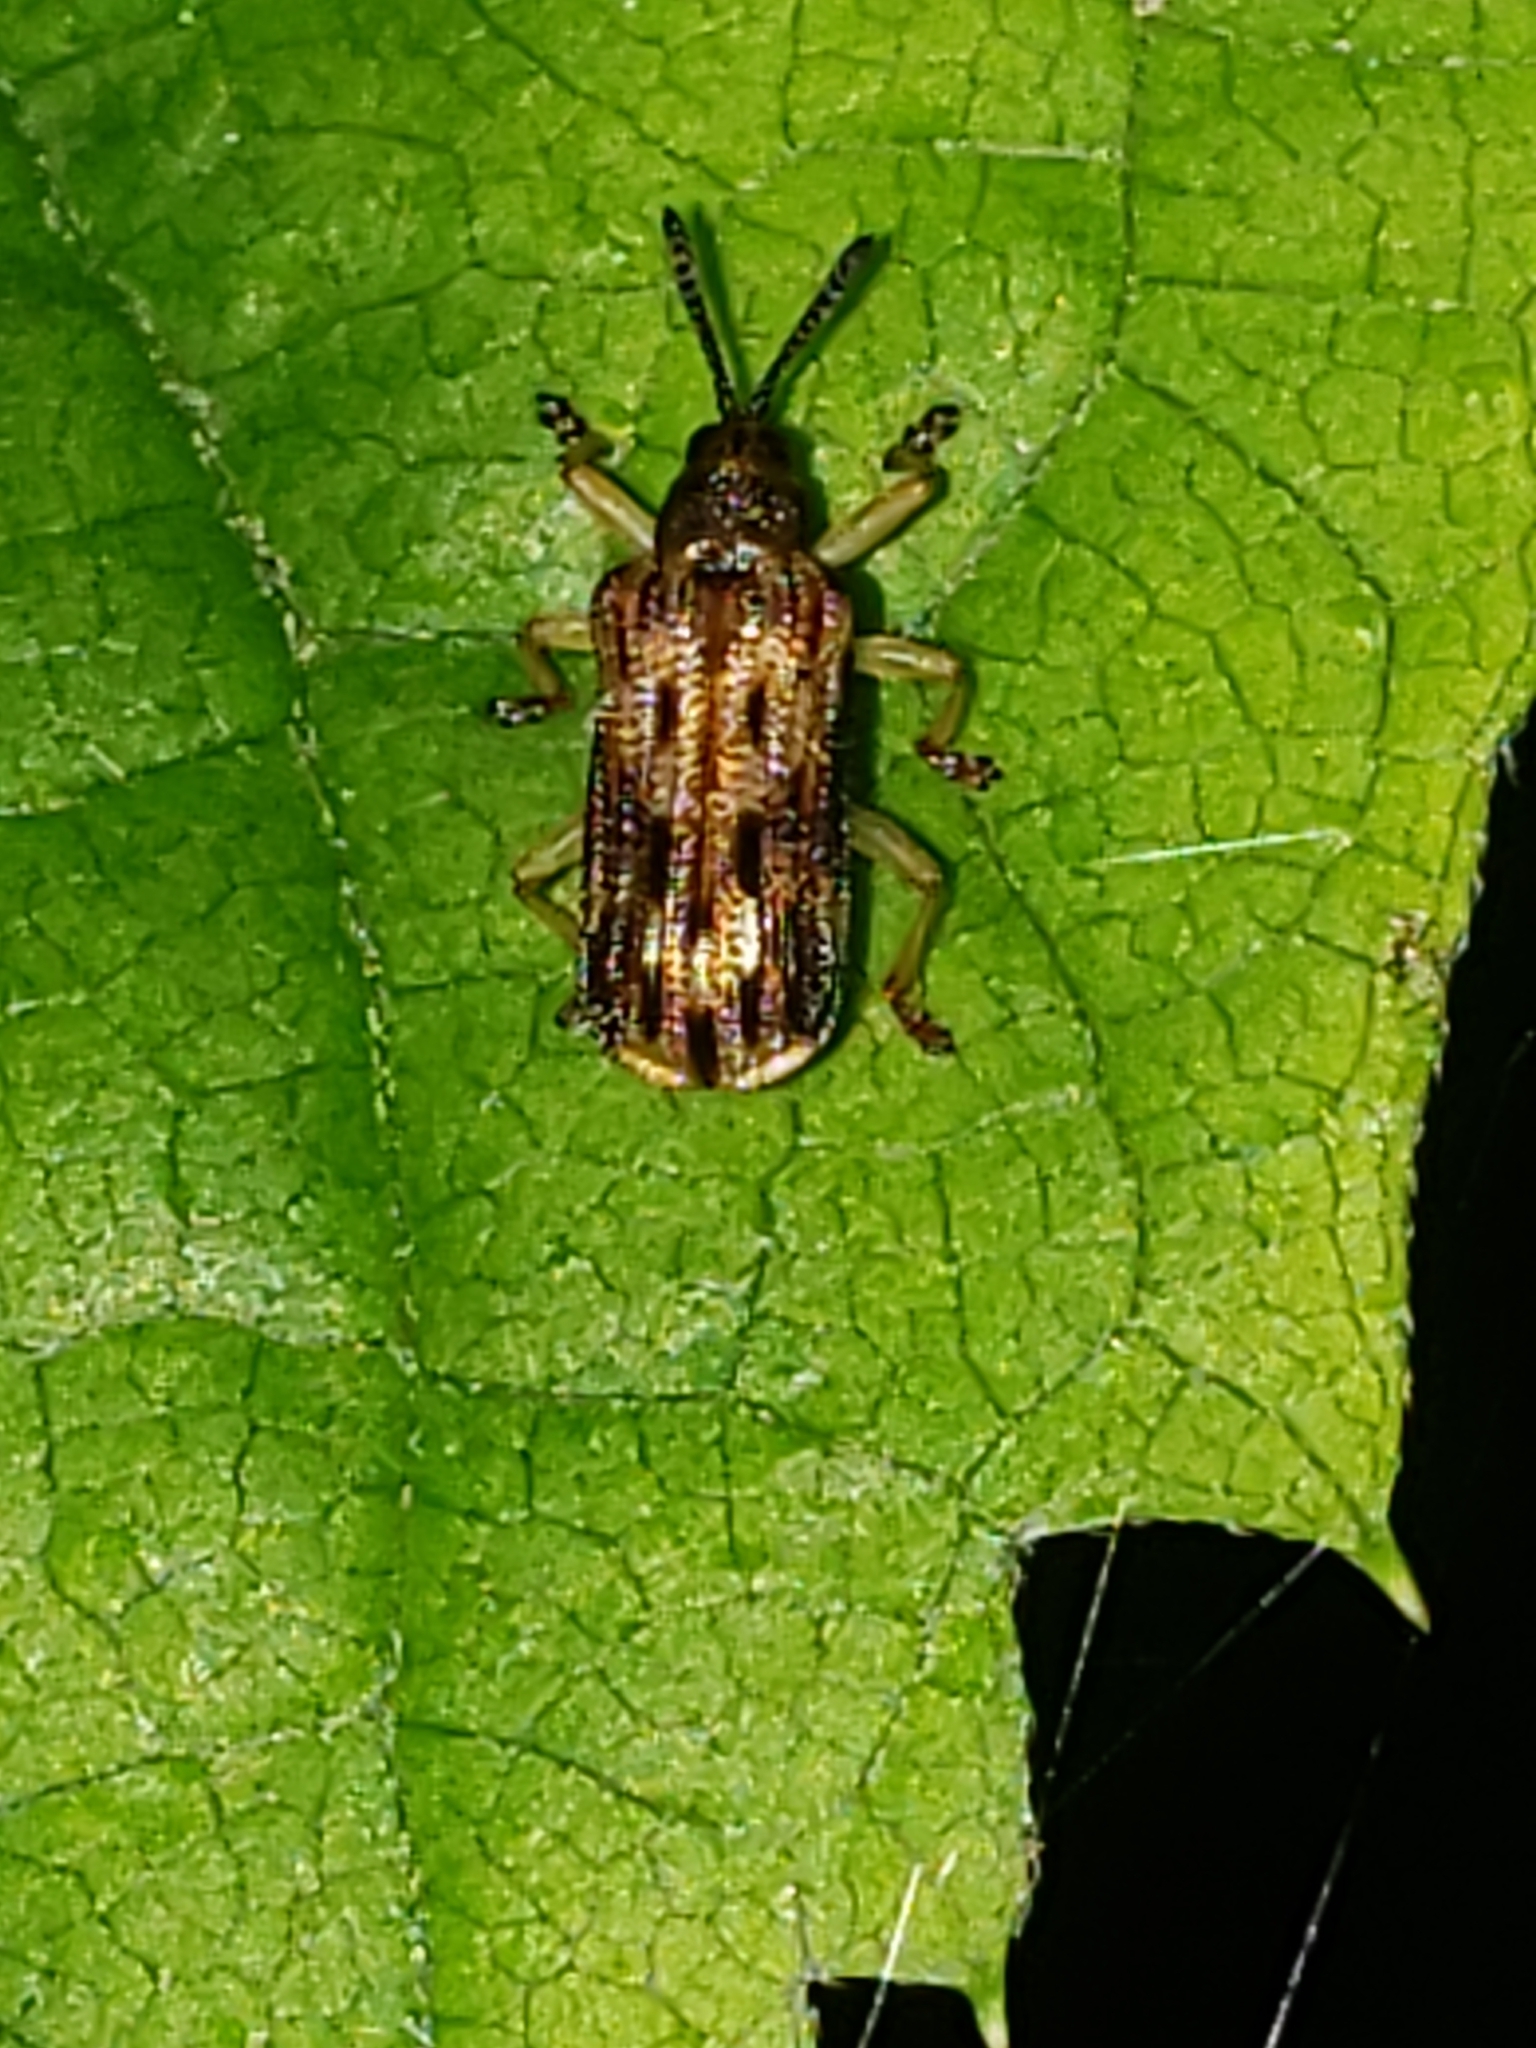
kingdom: Animalia
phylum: Arthropoda
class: Insecta
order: Coleoptera
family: Chrysomelidae
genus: Sumitrosis
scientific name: Sumitrosis inaequalis
